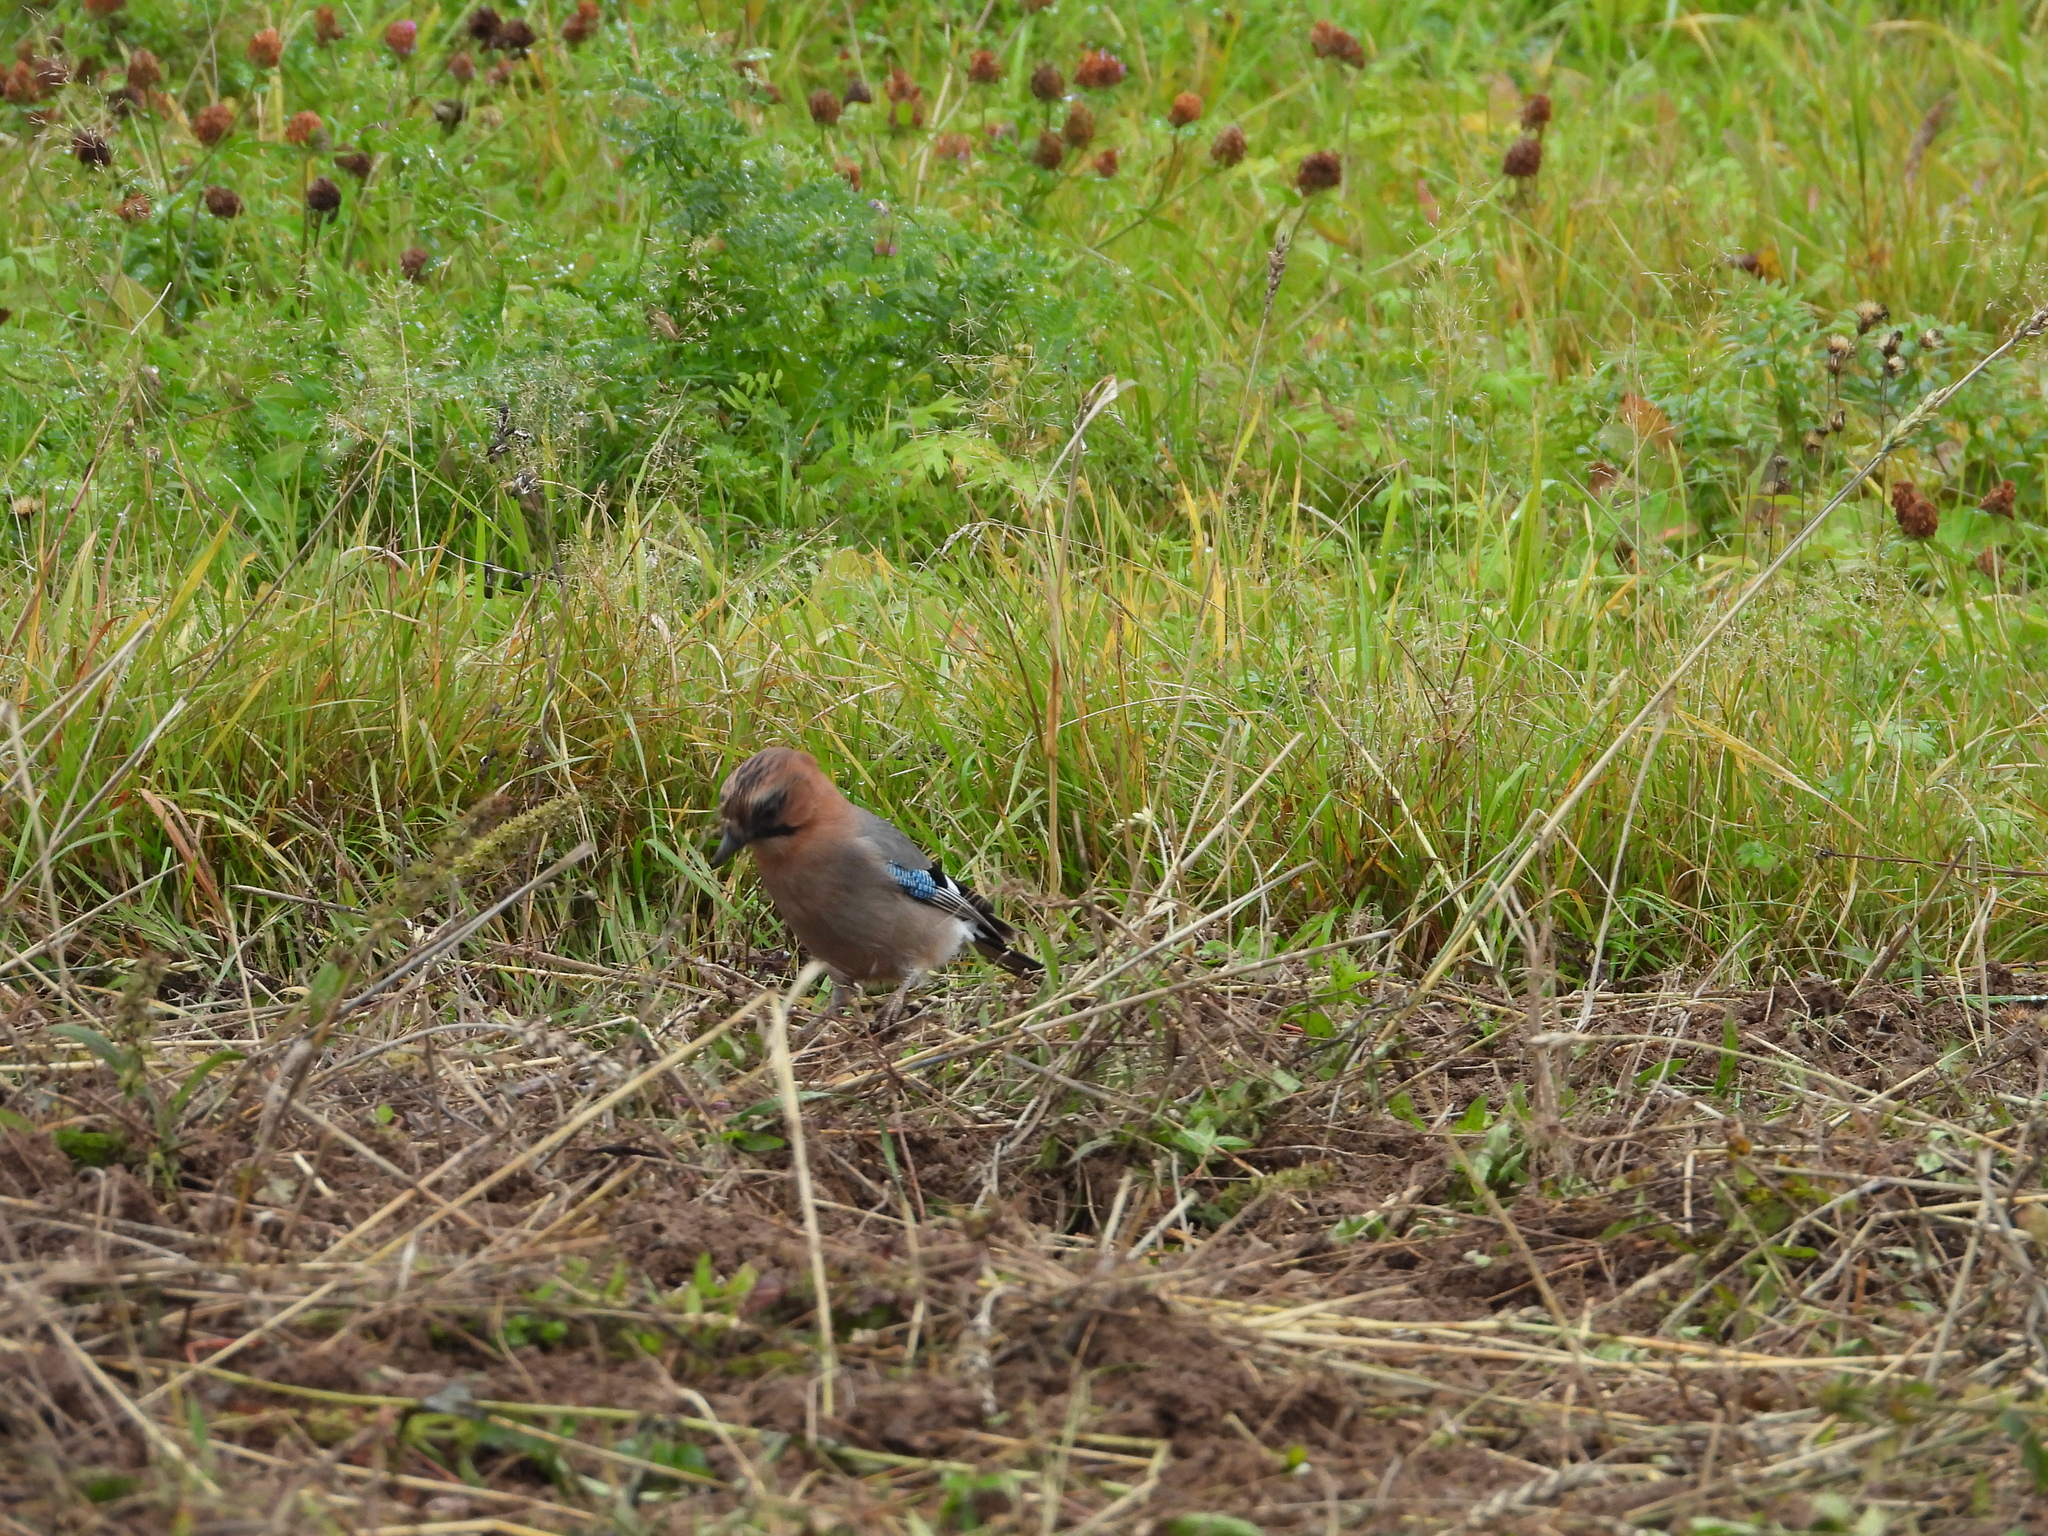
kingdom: Animalia
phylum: Chordata
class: Aves
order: Passeriformes
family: Corvidae
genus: Garrulus
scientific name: Garrulus glandarius
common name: Eurasian jay
